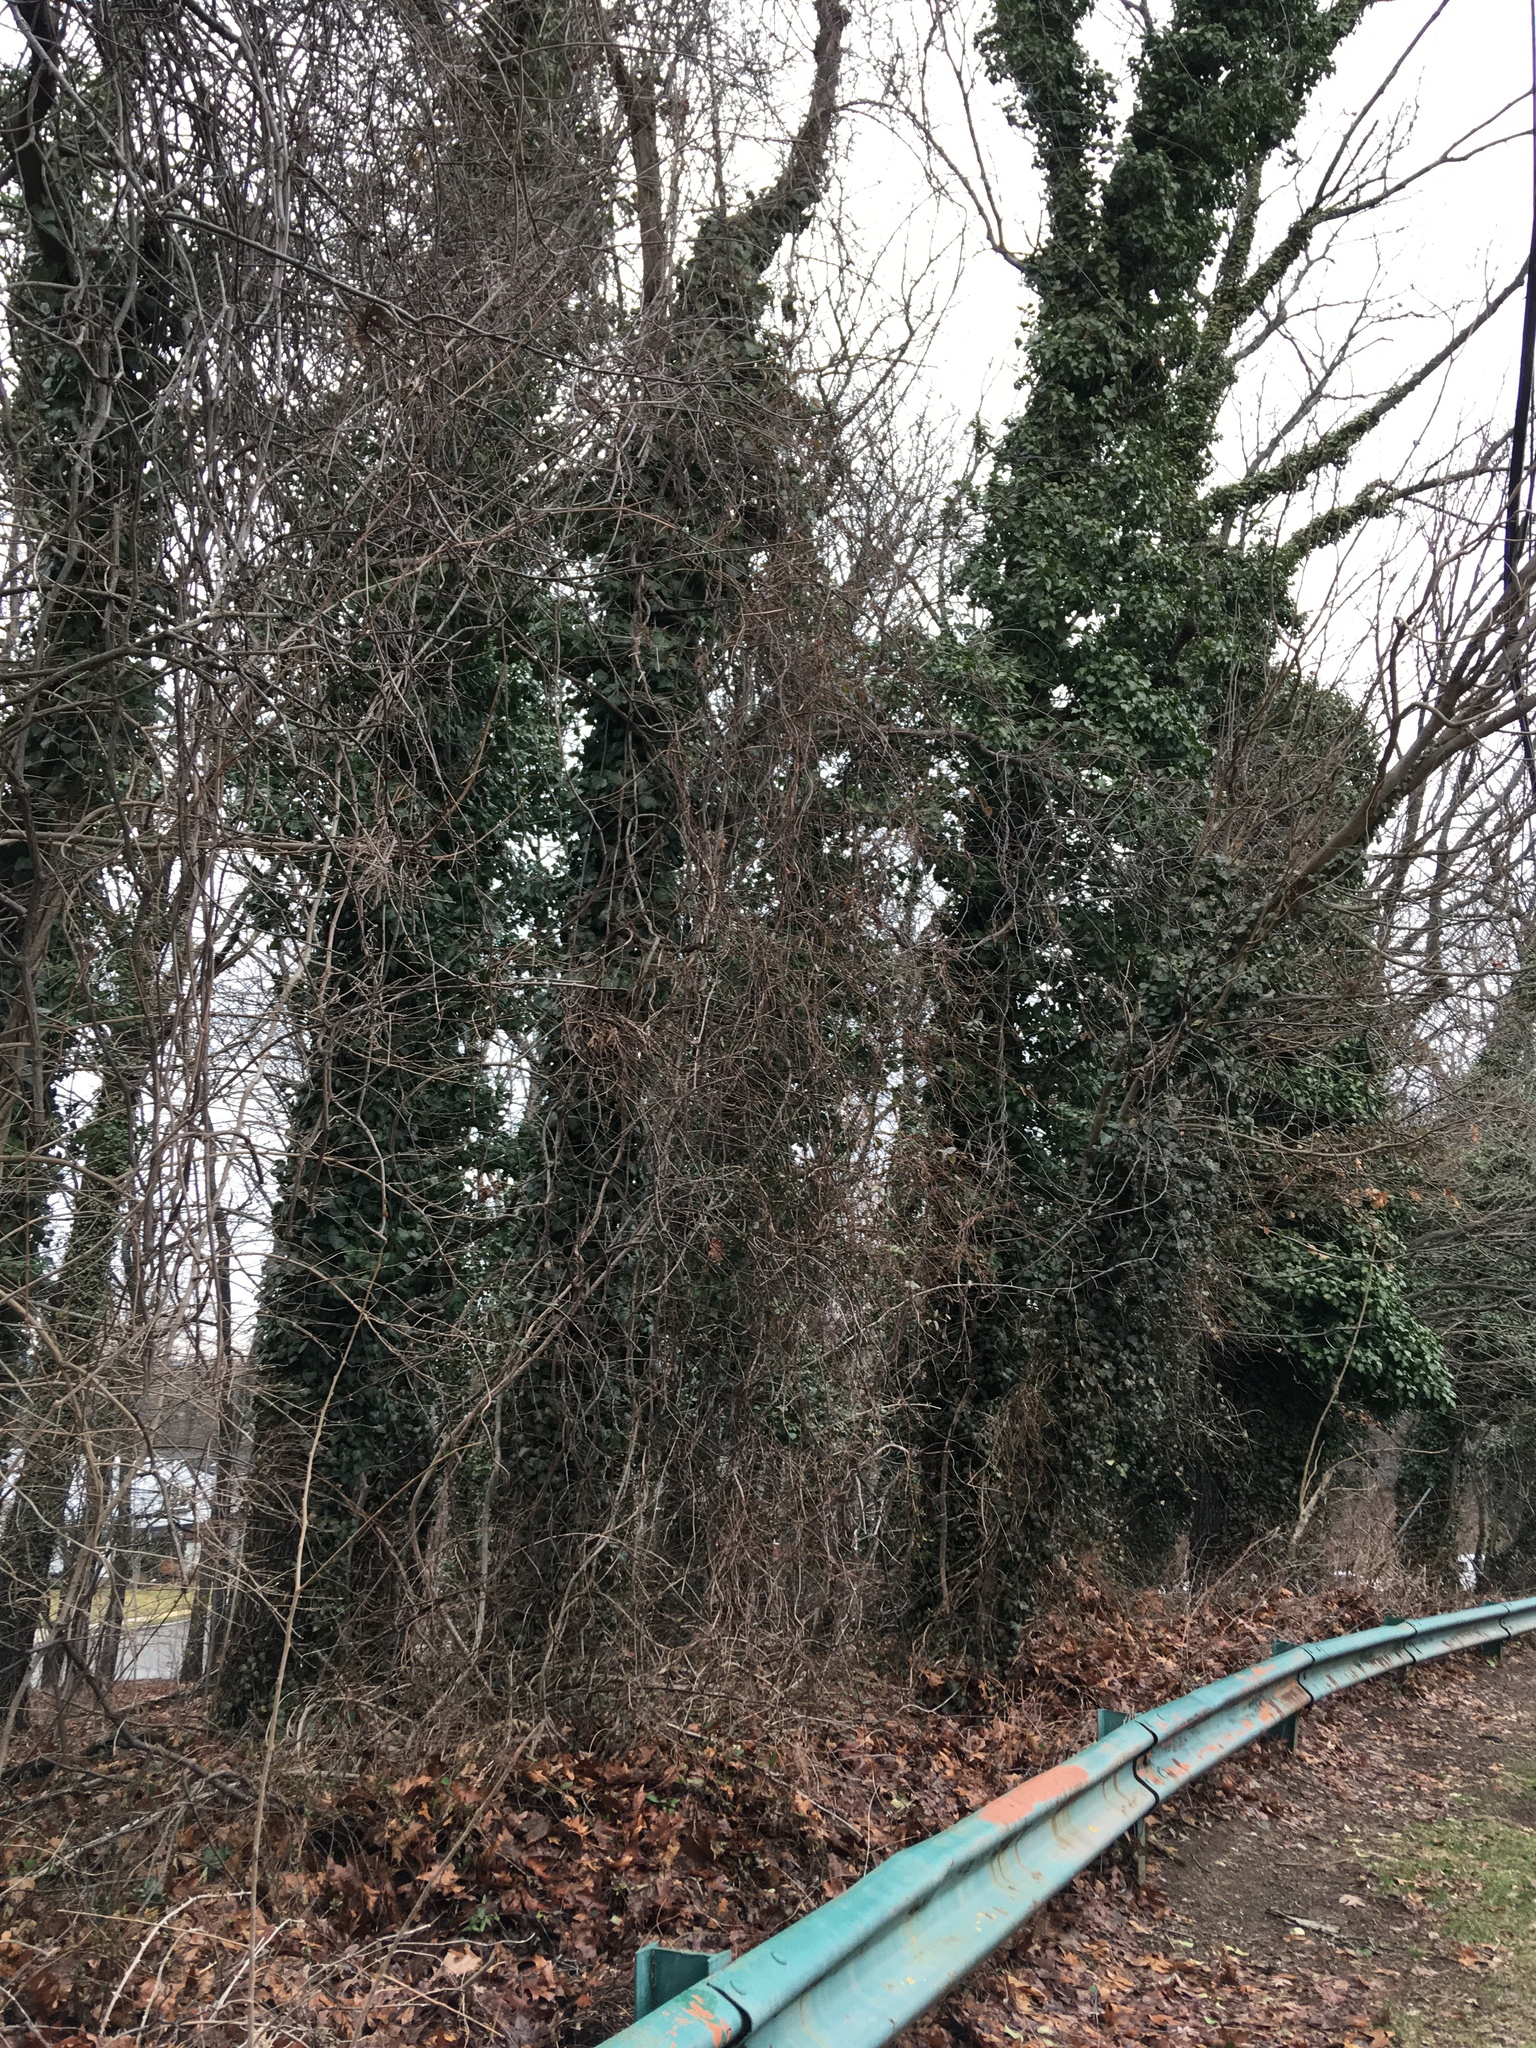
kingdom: Plantae
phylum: Tracheophyta
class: Magnoliopsida
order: Apiales
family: Araliaceae
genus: Hedera
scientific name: Hedera helix
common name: Ivy
